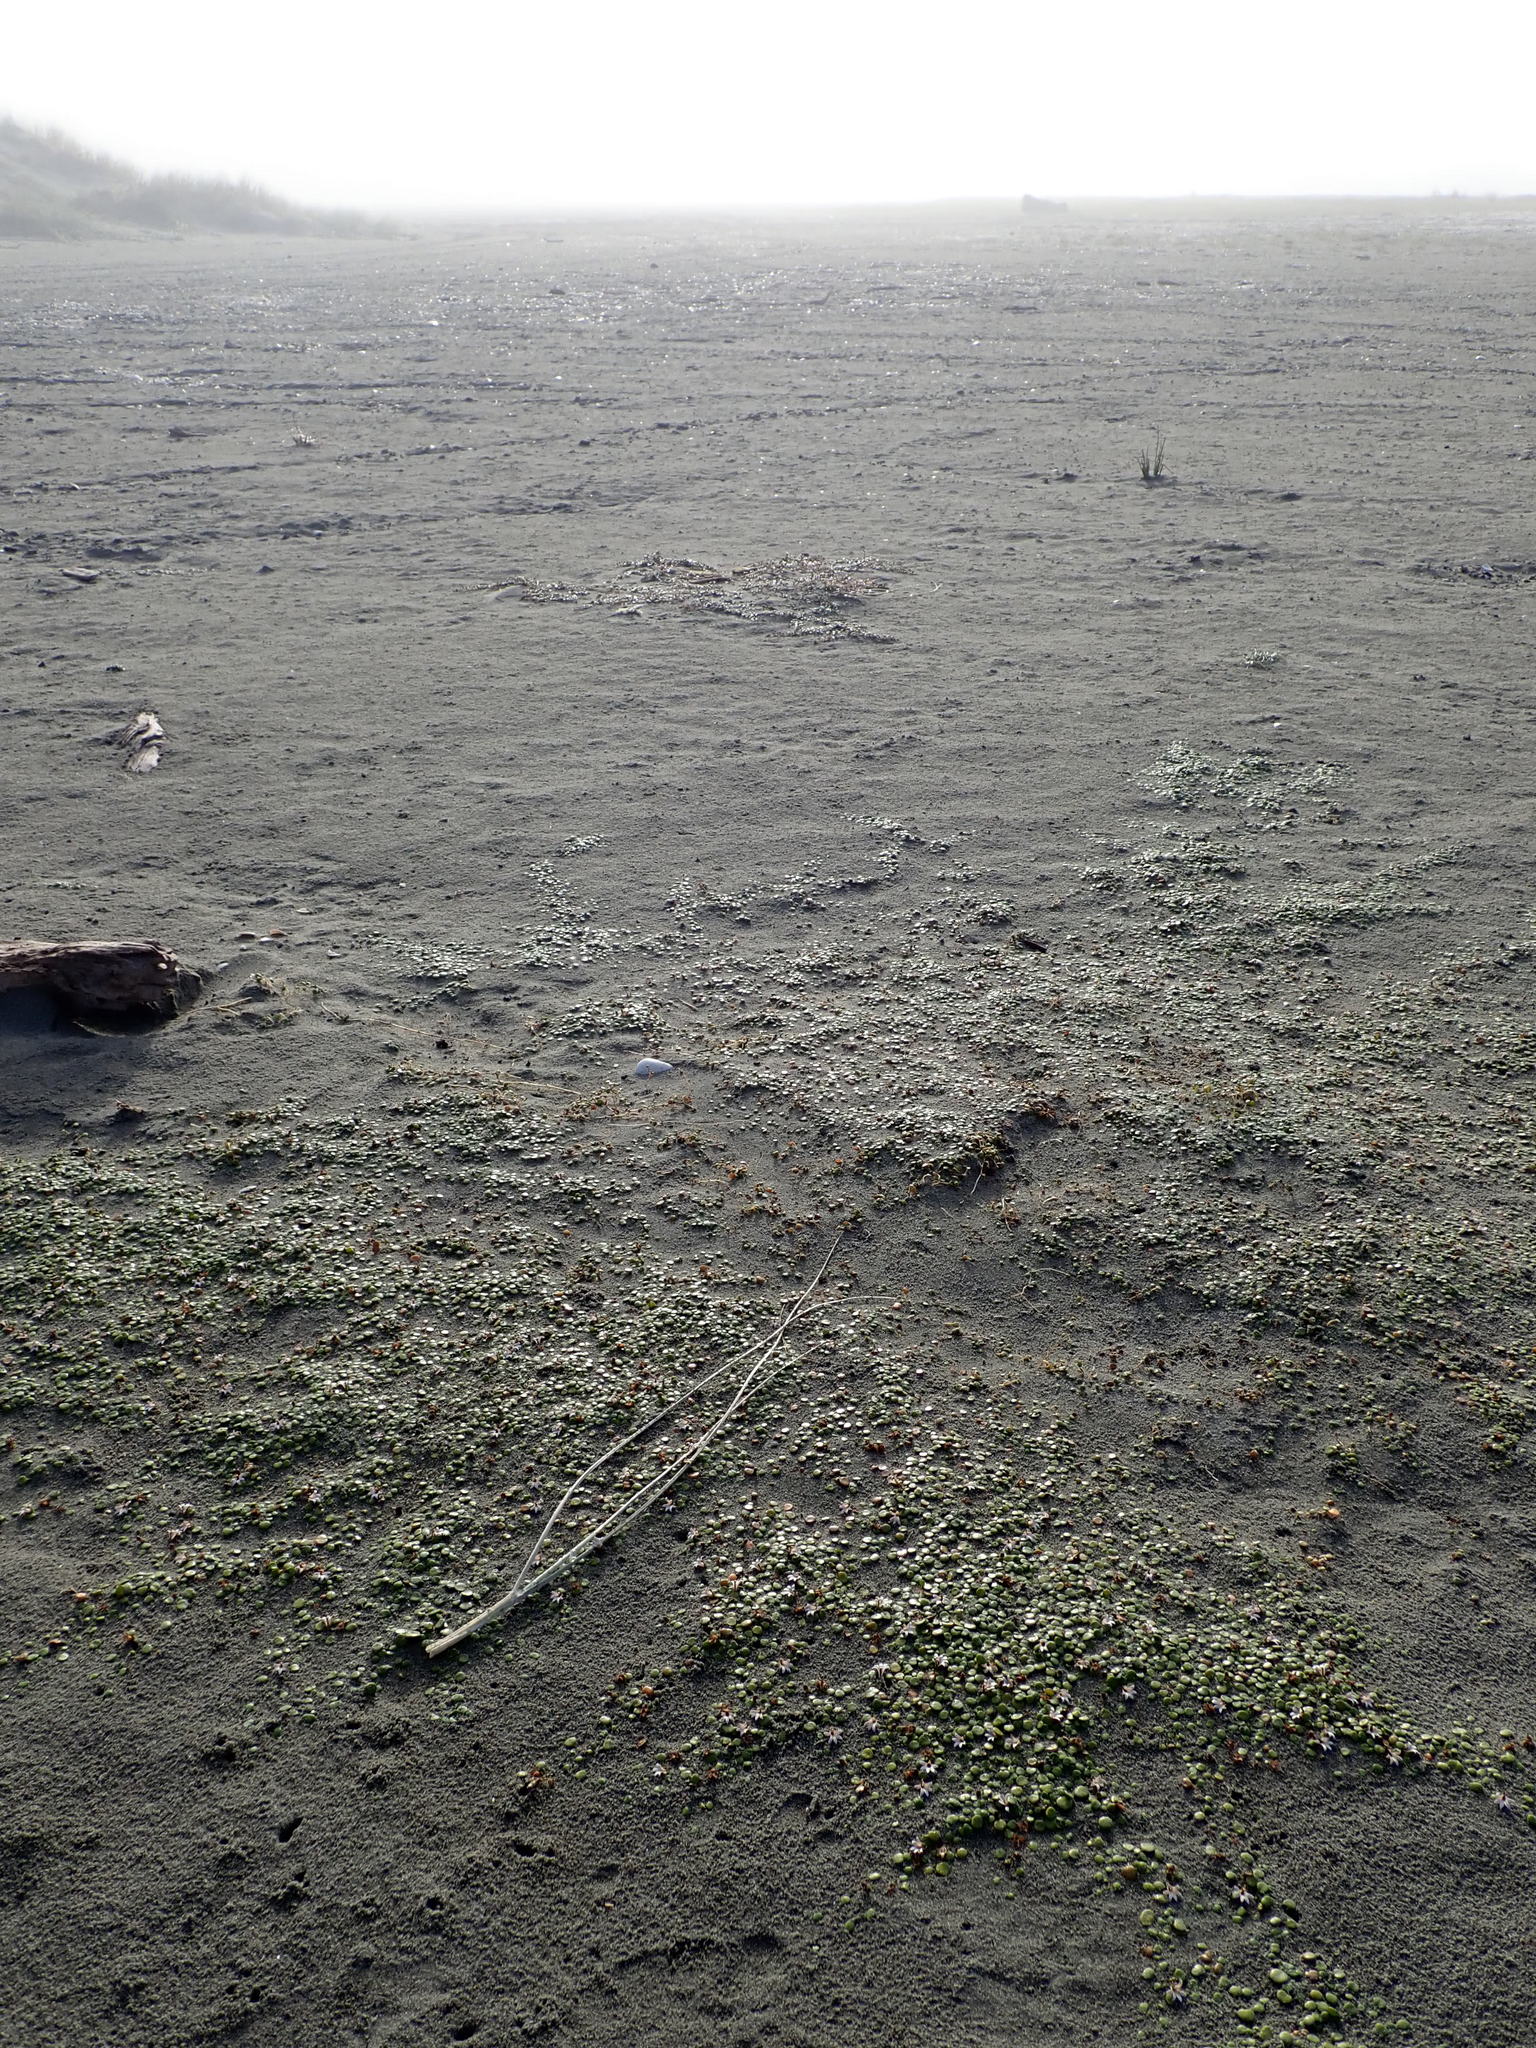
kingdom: Plantae
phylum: Tracheophyta
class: Magnoliopsida
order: Asterales
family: Goodeniaceae
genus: Goodenia
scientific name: Goodenia heenanii
